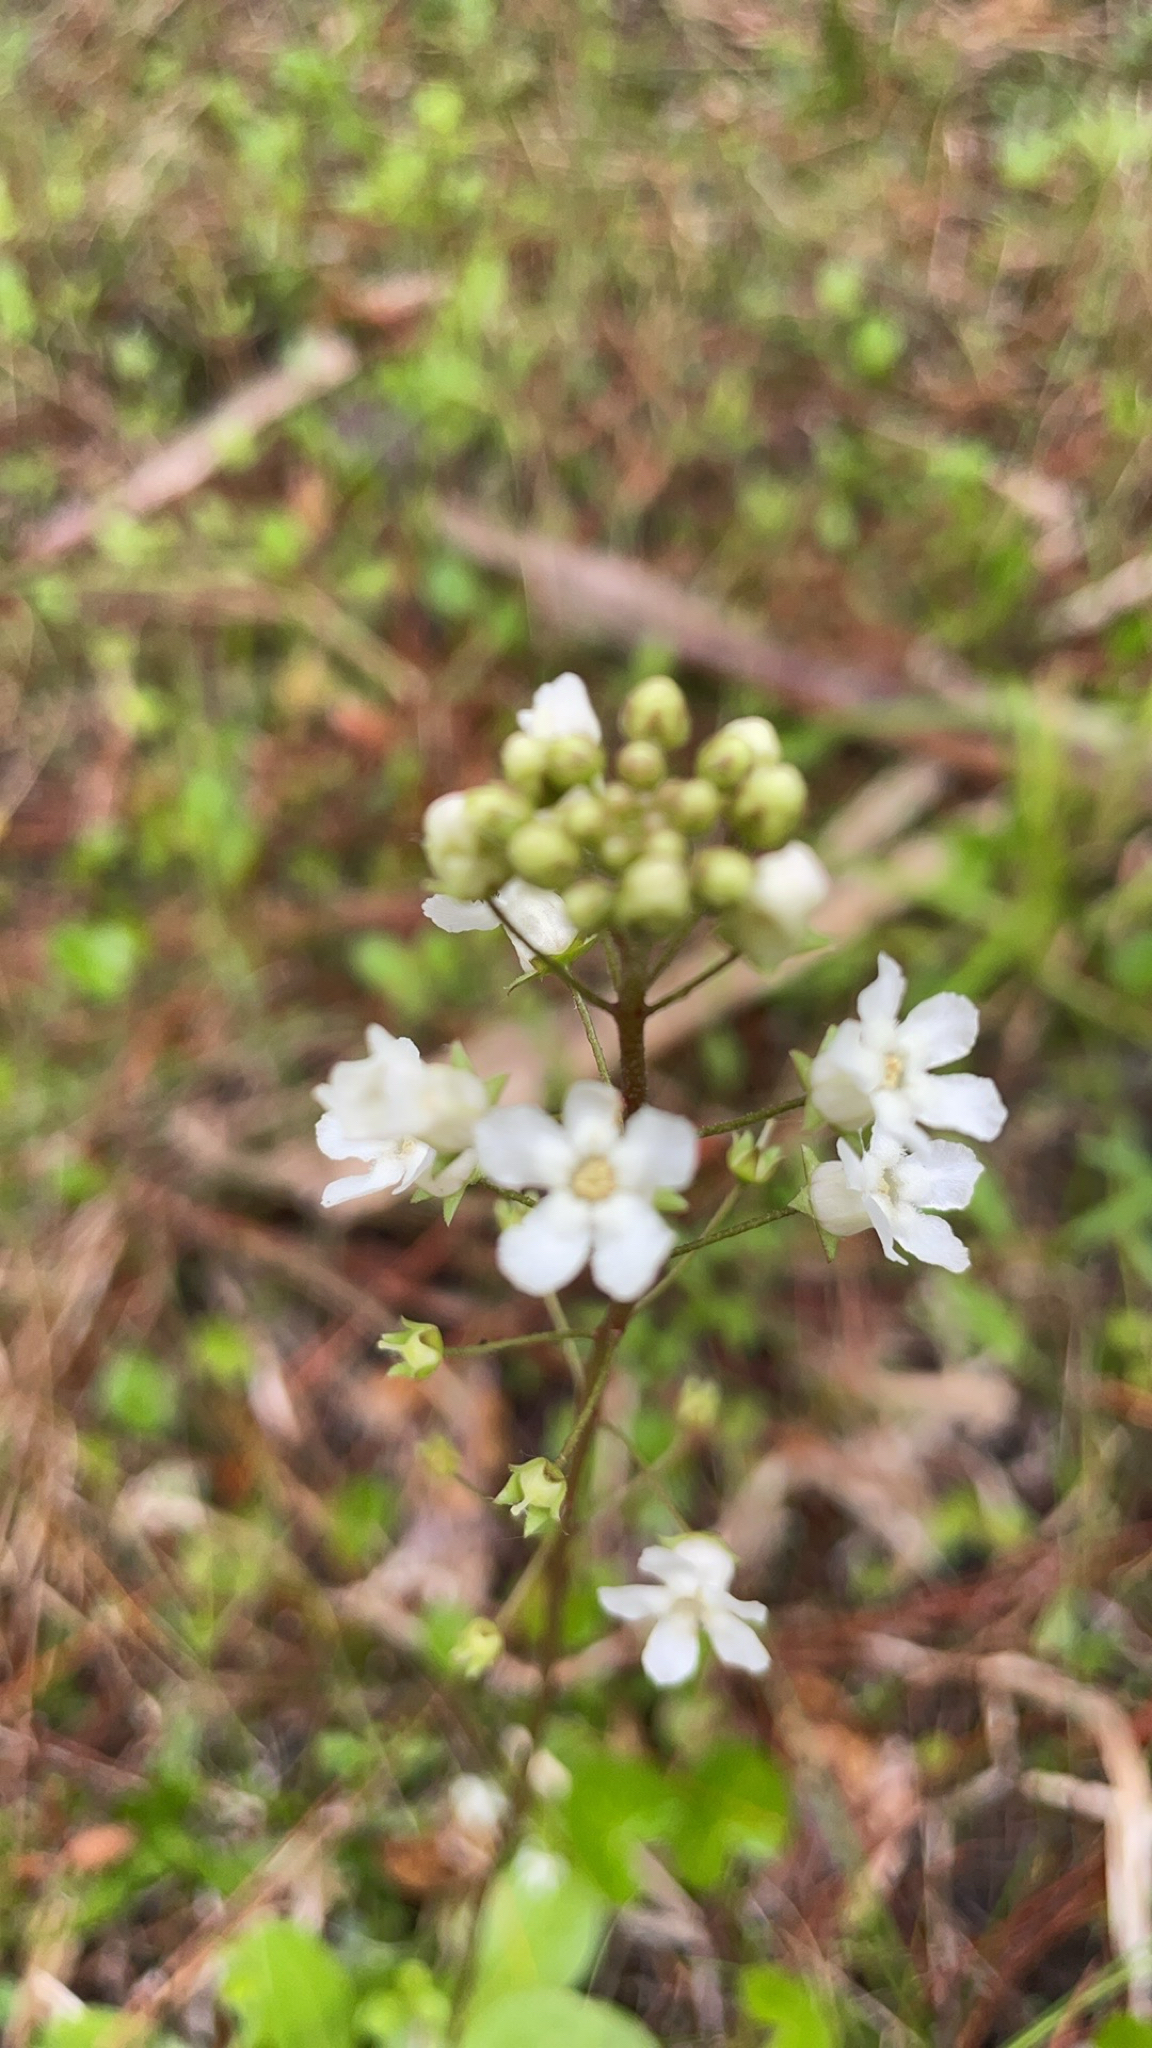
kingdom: Plantae
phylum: Tracheophyta
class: Magnoliopsida
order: Ericales
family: Primulaceae
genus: Samolus
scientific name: Samolus ebracteatus
